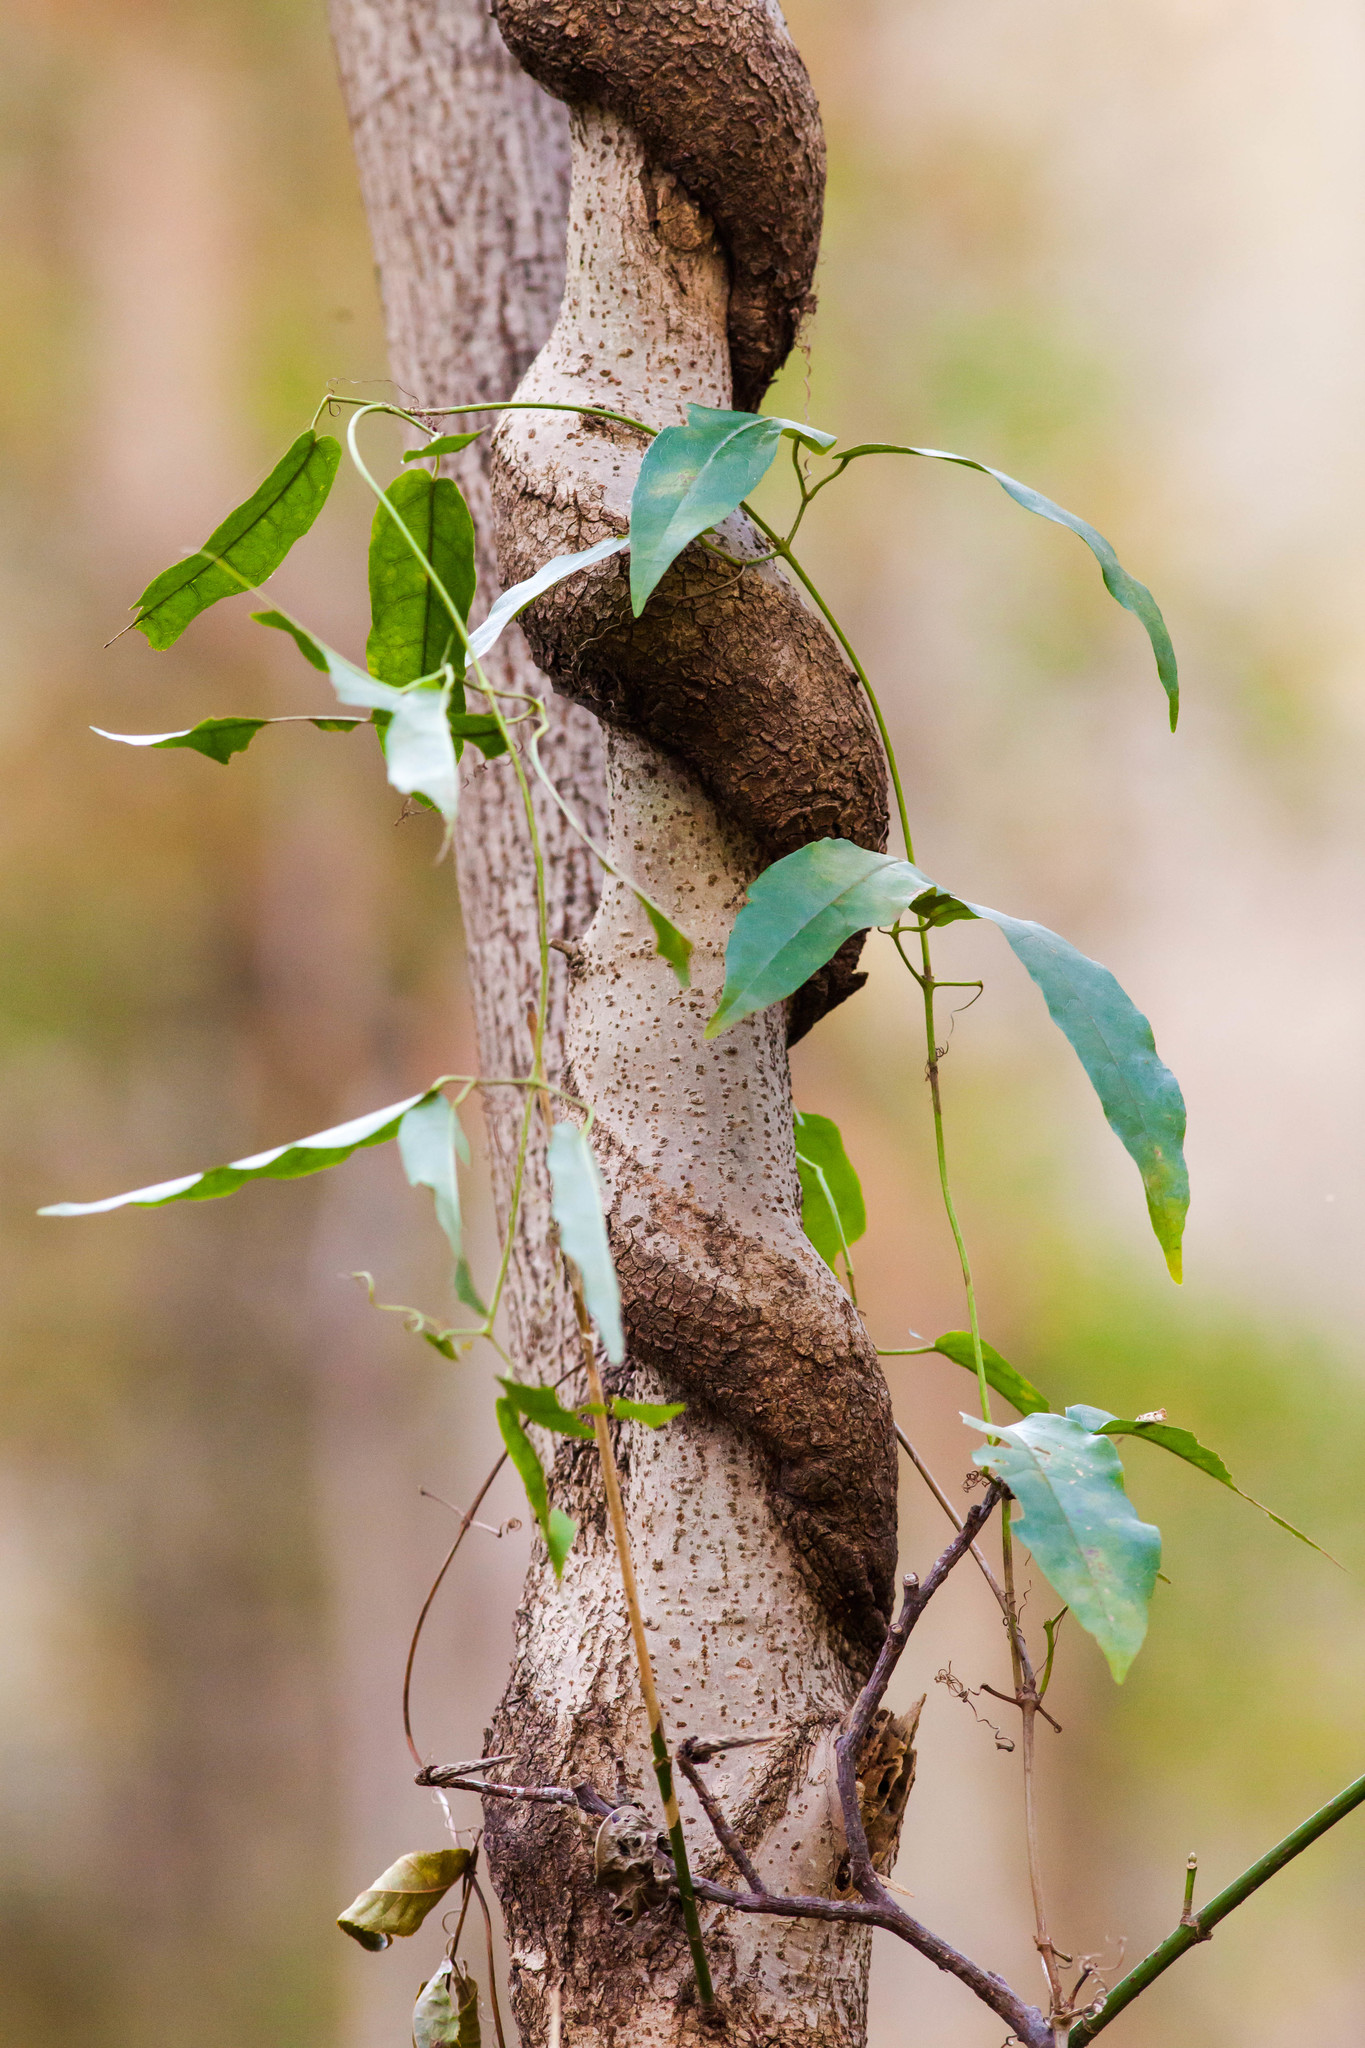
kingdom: Plantae
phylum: Tracheophyta
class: Magnoliopsida
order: Lamiales
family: Bignoniaceae
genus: Bignonia
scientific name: Bignonia capreolata
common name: Crossvine
